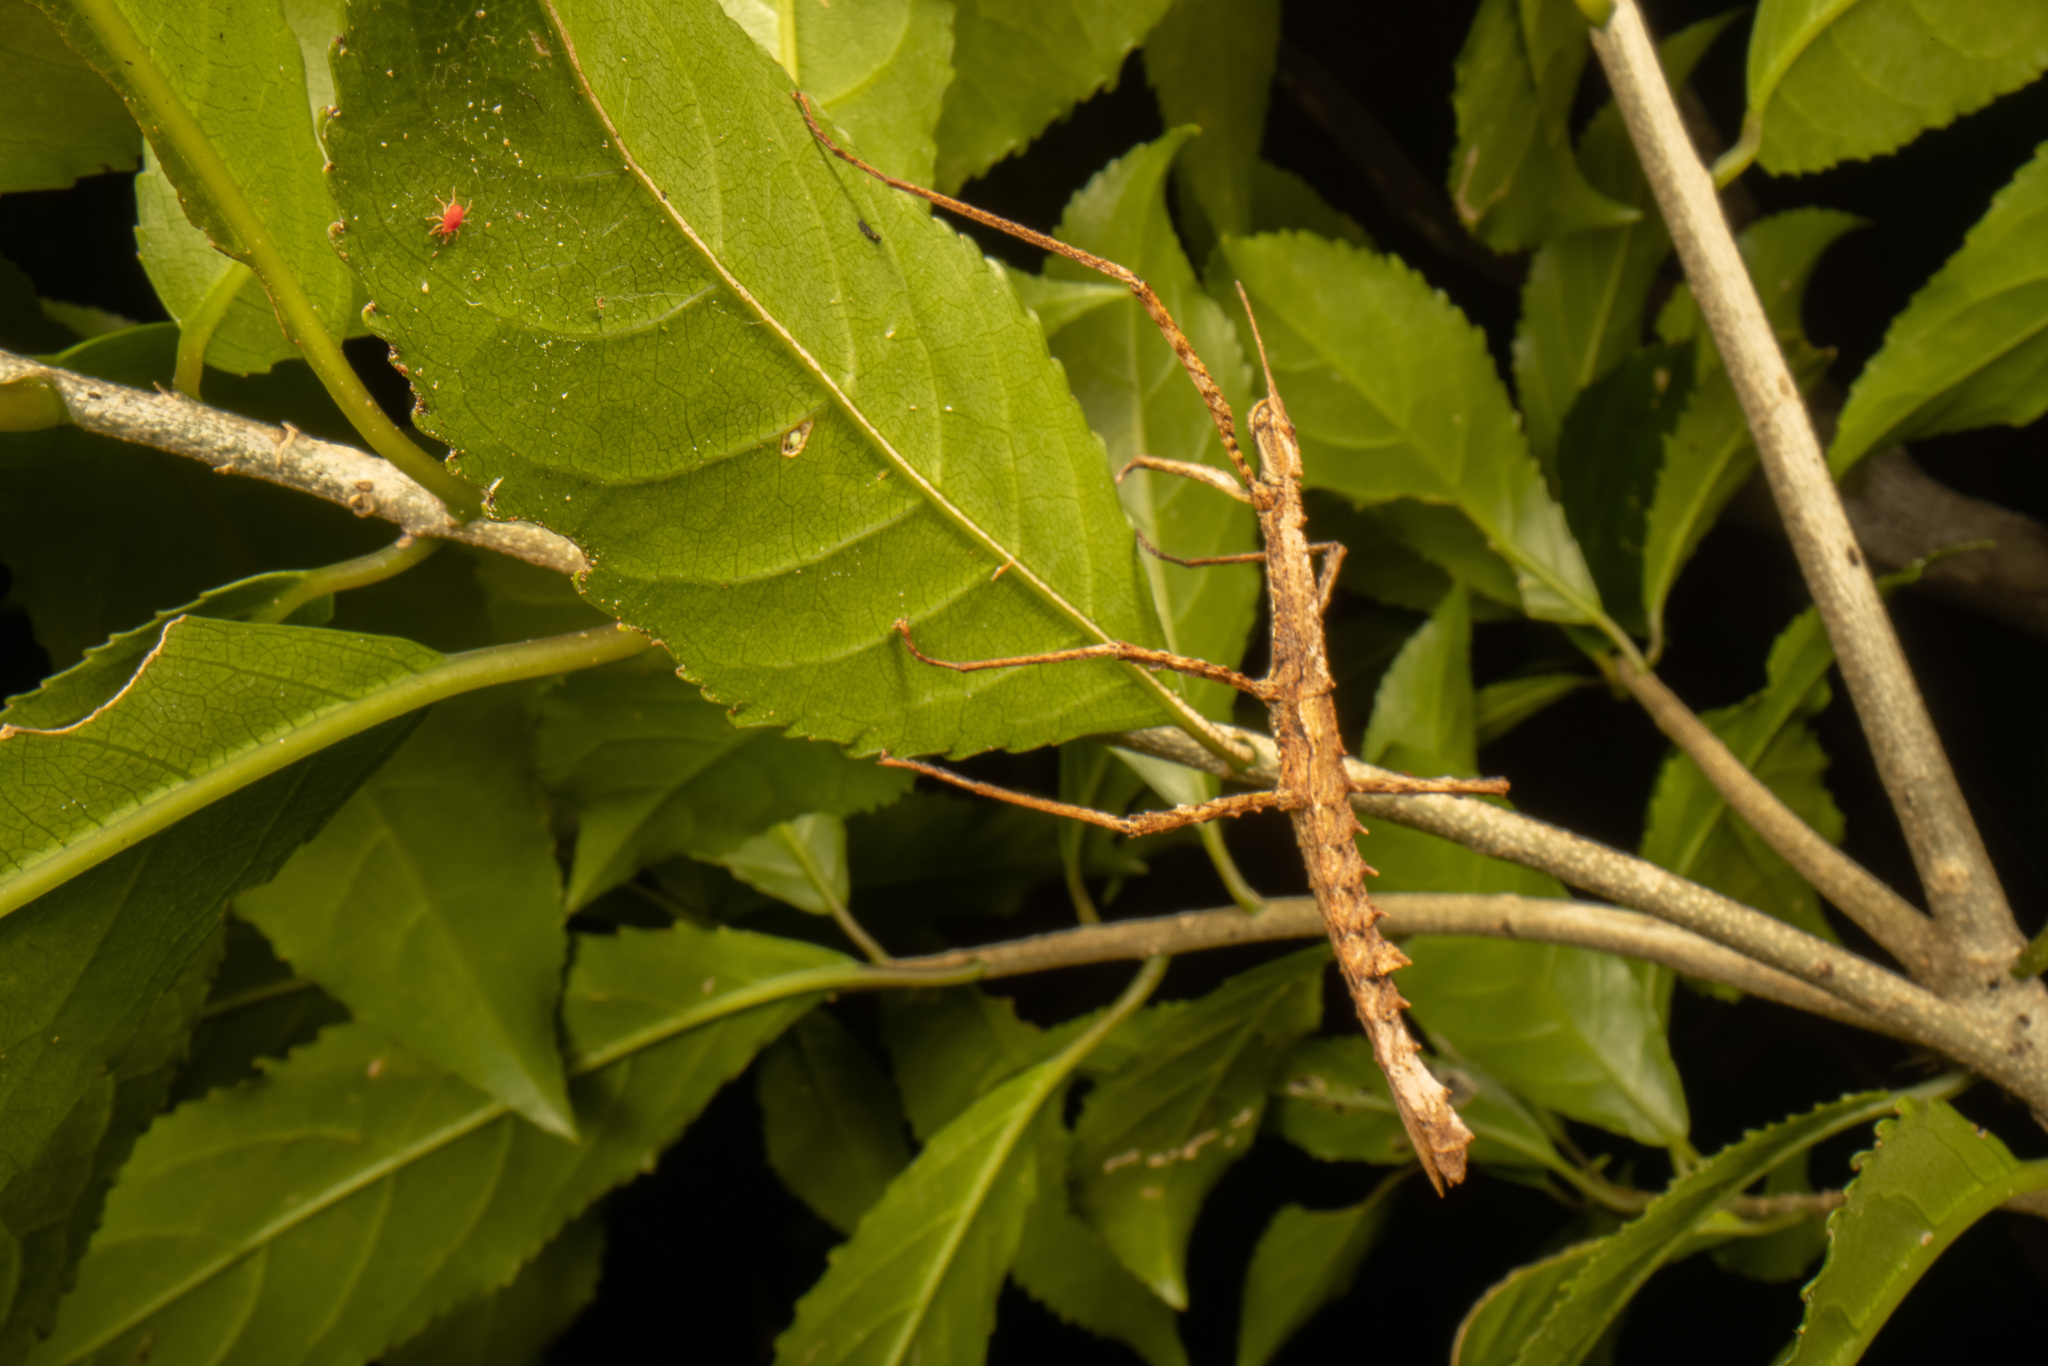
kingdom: Animalia
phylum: Arthropoda
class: Insecta
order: Phasmida
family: Phasmatidae
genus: Spinotectarchus
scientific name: Spinotectarchus acornutus
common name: The spiny ridge-backed stick insect
